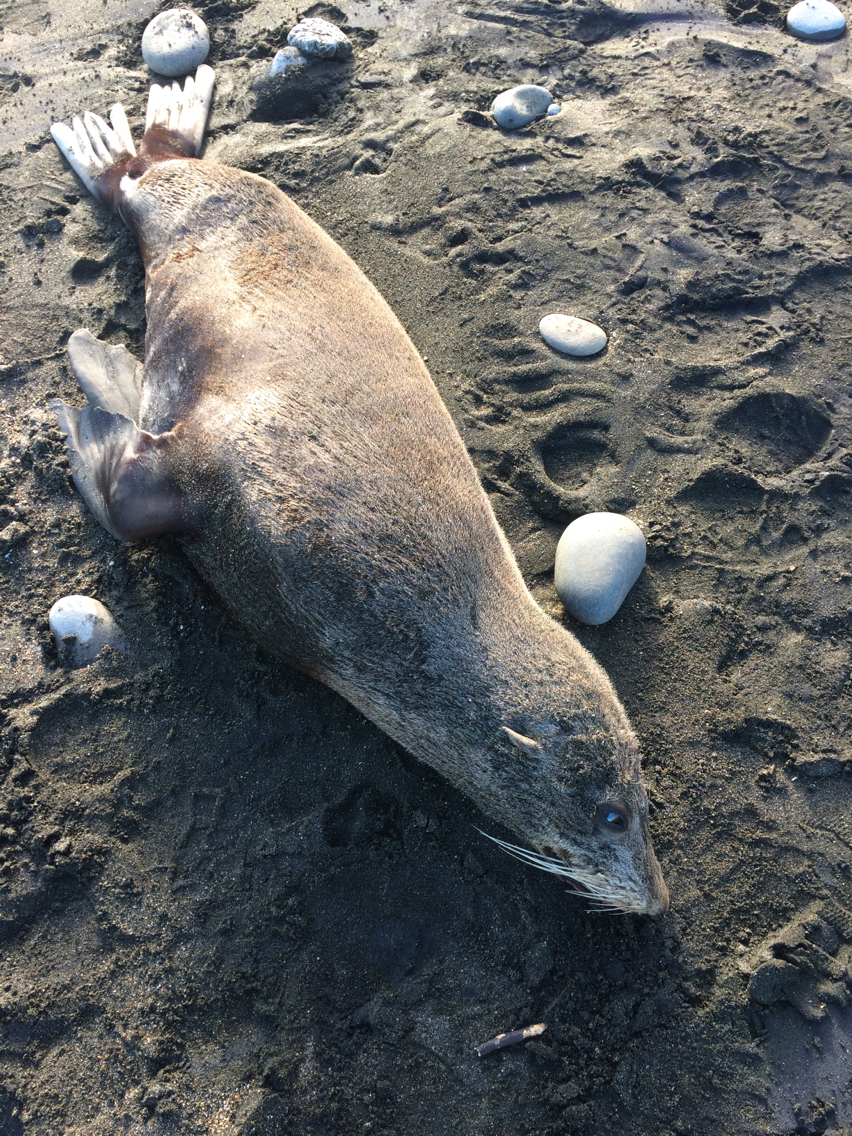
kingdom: Animalia
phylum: Chordata
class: Mammalia
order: Carnivora
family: Otariidae
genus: Arctocephalus
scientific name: Arctocephalus forsteri
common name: New zealand fur seal
